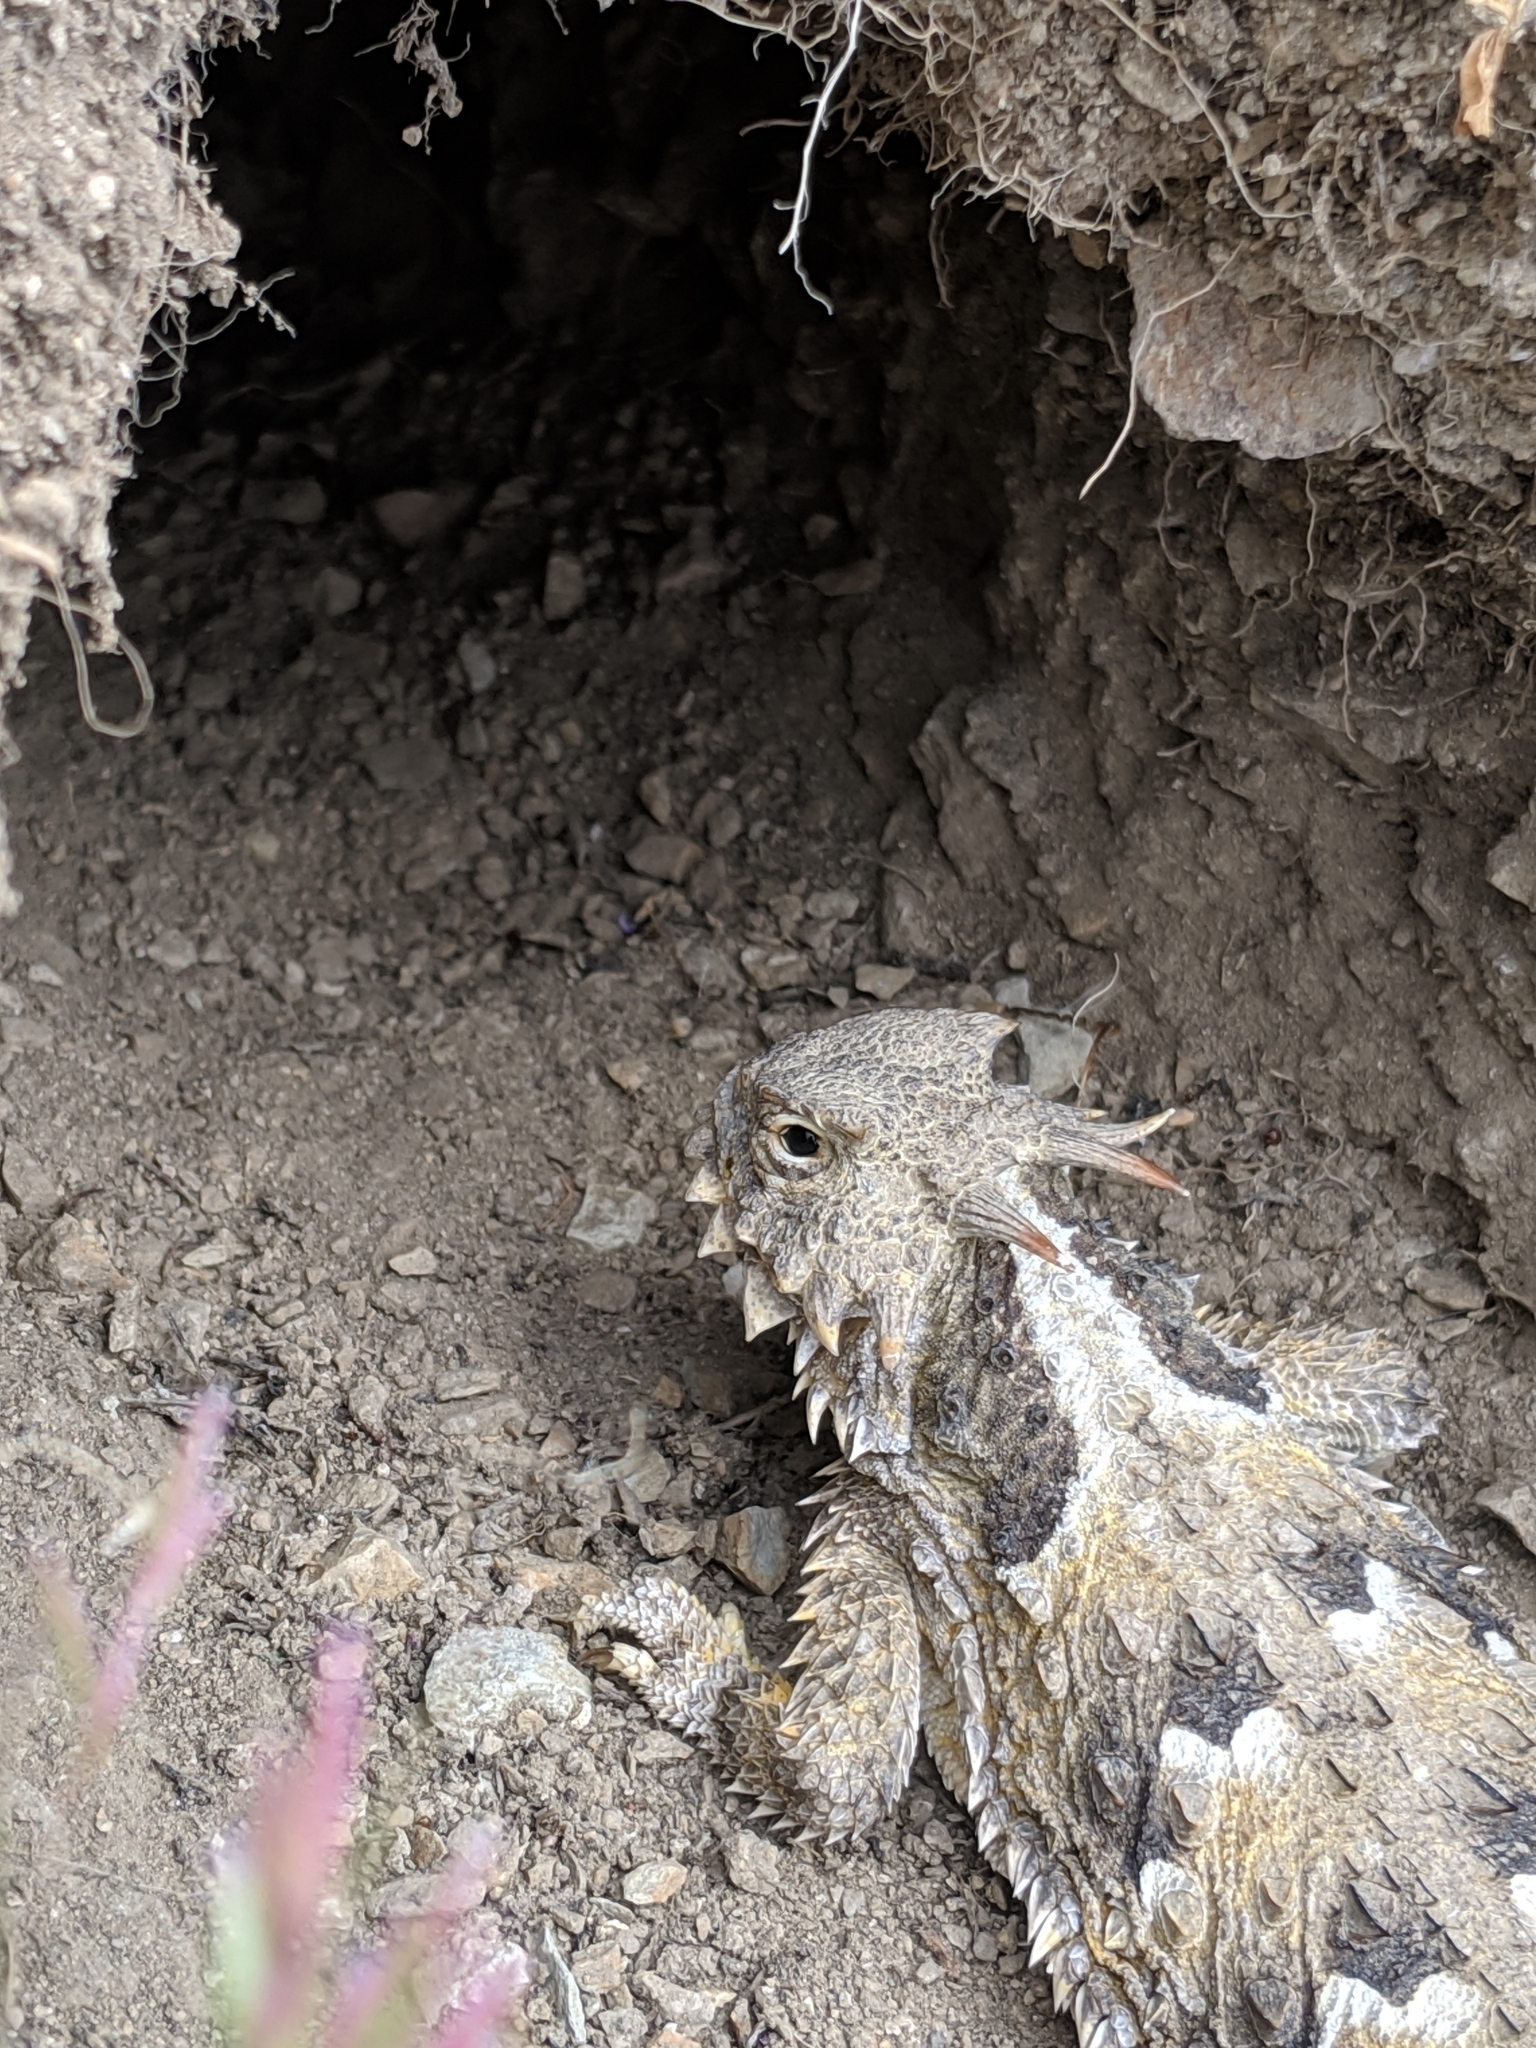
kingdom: Animalia
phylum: Chordata
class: Squamata
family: Phrynosomatidae
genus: Phrynosoma
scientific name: Phrynosoma blainvillii
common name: San diego horned lizard
